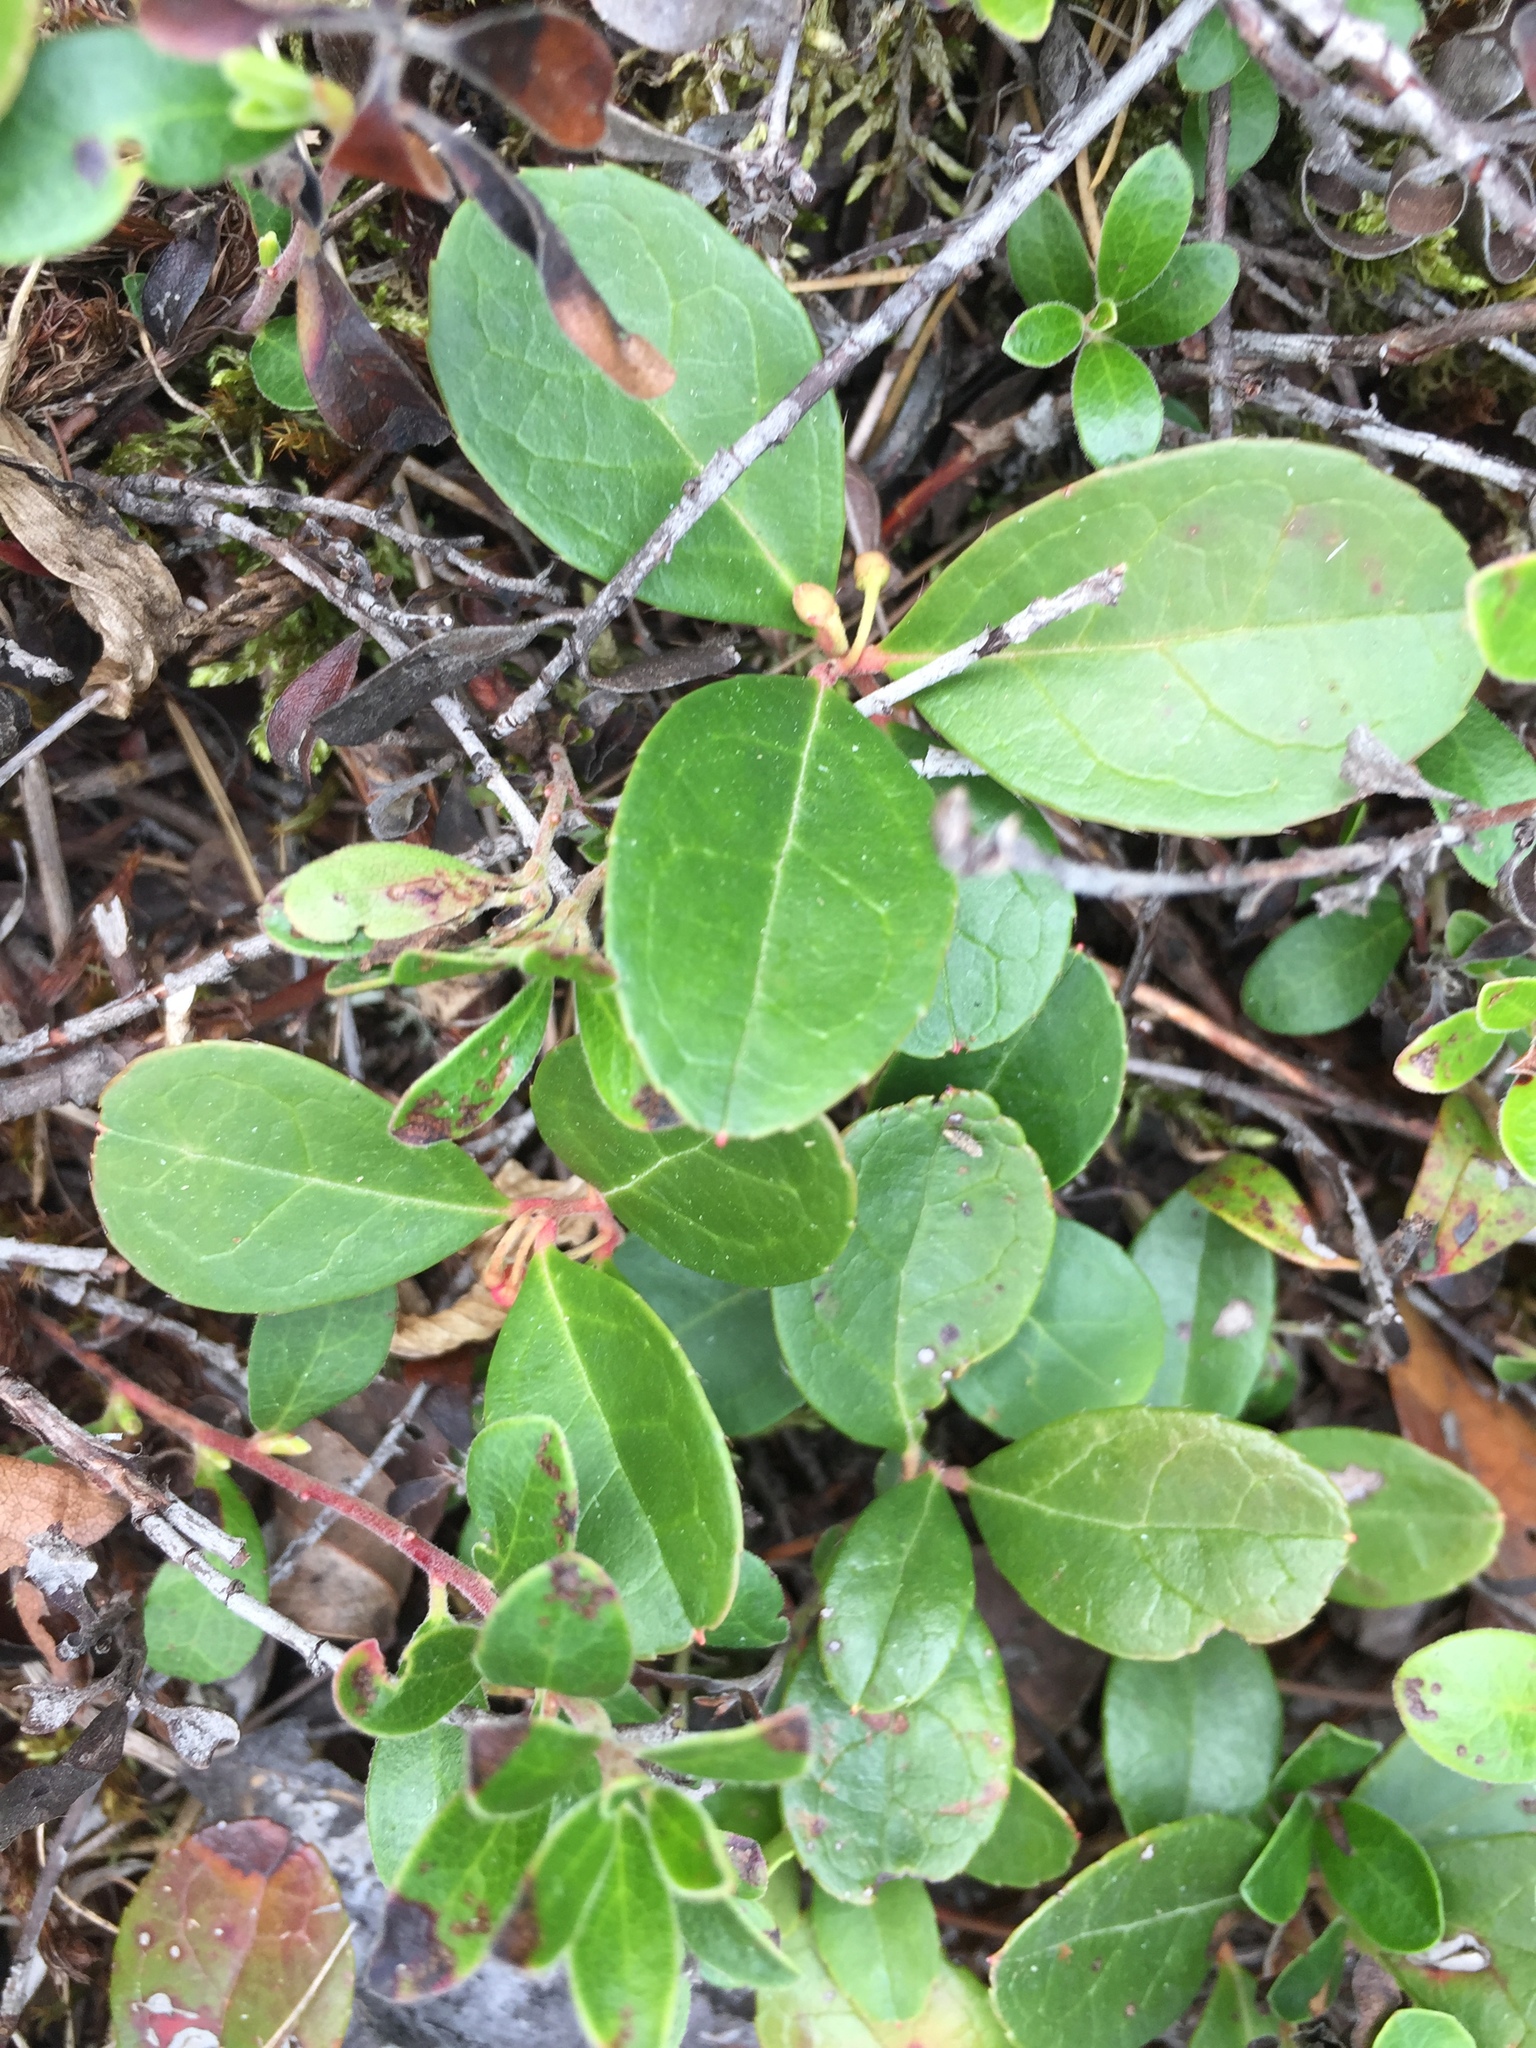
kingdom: Plantae
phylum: Tracheophyta
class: Magnoliopsida
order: Ericales
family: Ericaceae
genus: Gaultheria
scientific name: Gaultheria procumbens
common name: Checkerberry
